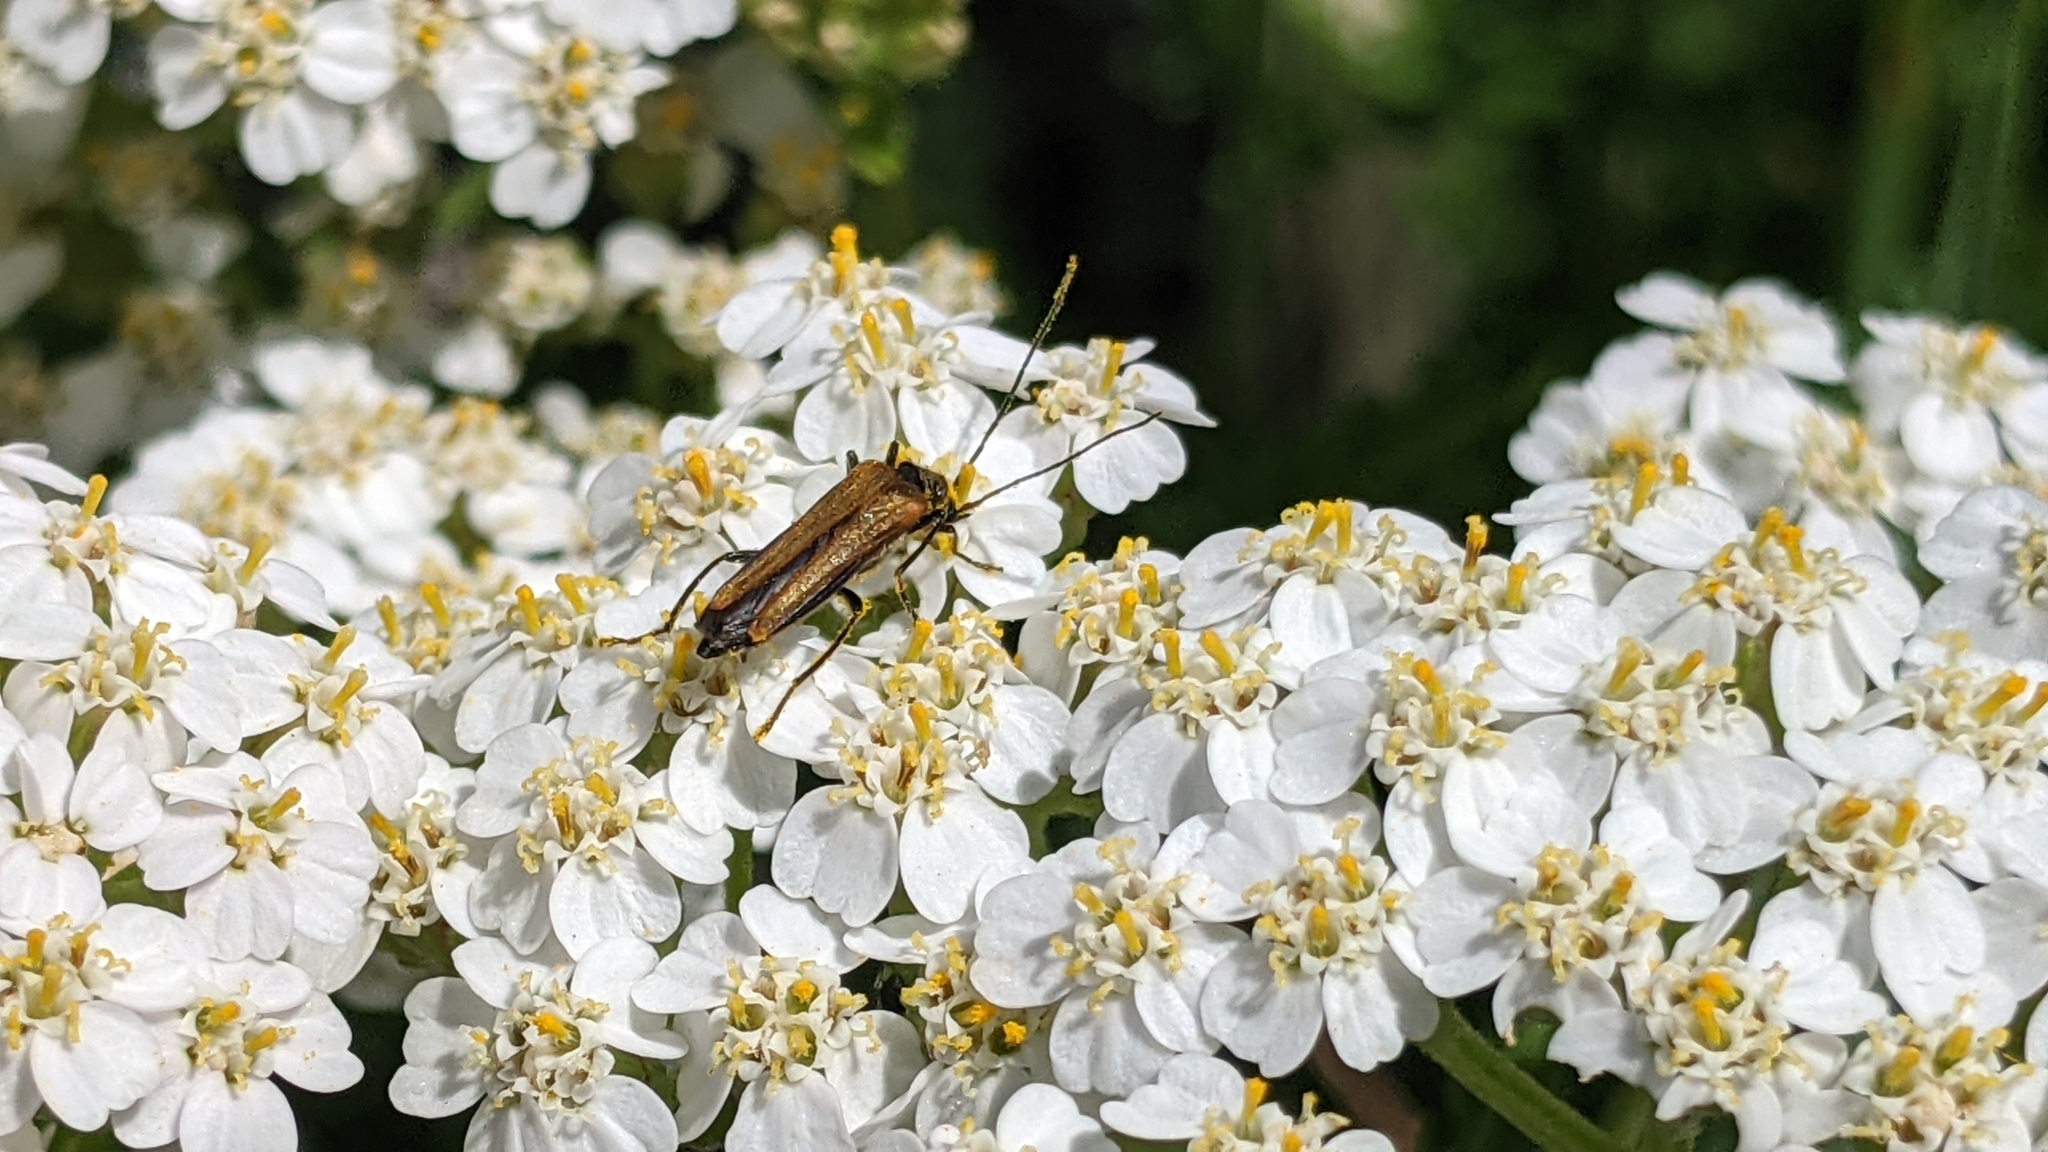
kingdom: Animalia
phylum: Arthropoda
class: Insecta
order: Coleoptera
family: Oedemeridae
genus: Oedemera
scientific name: Oedemera femorata
